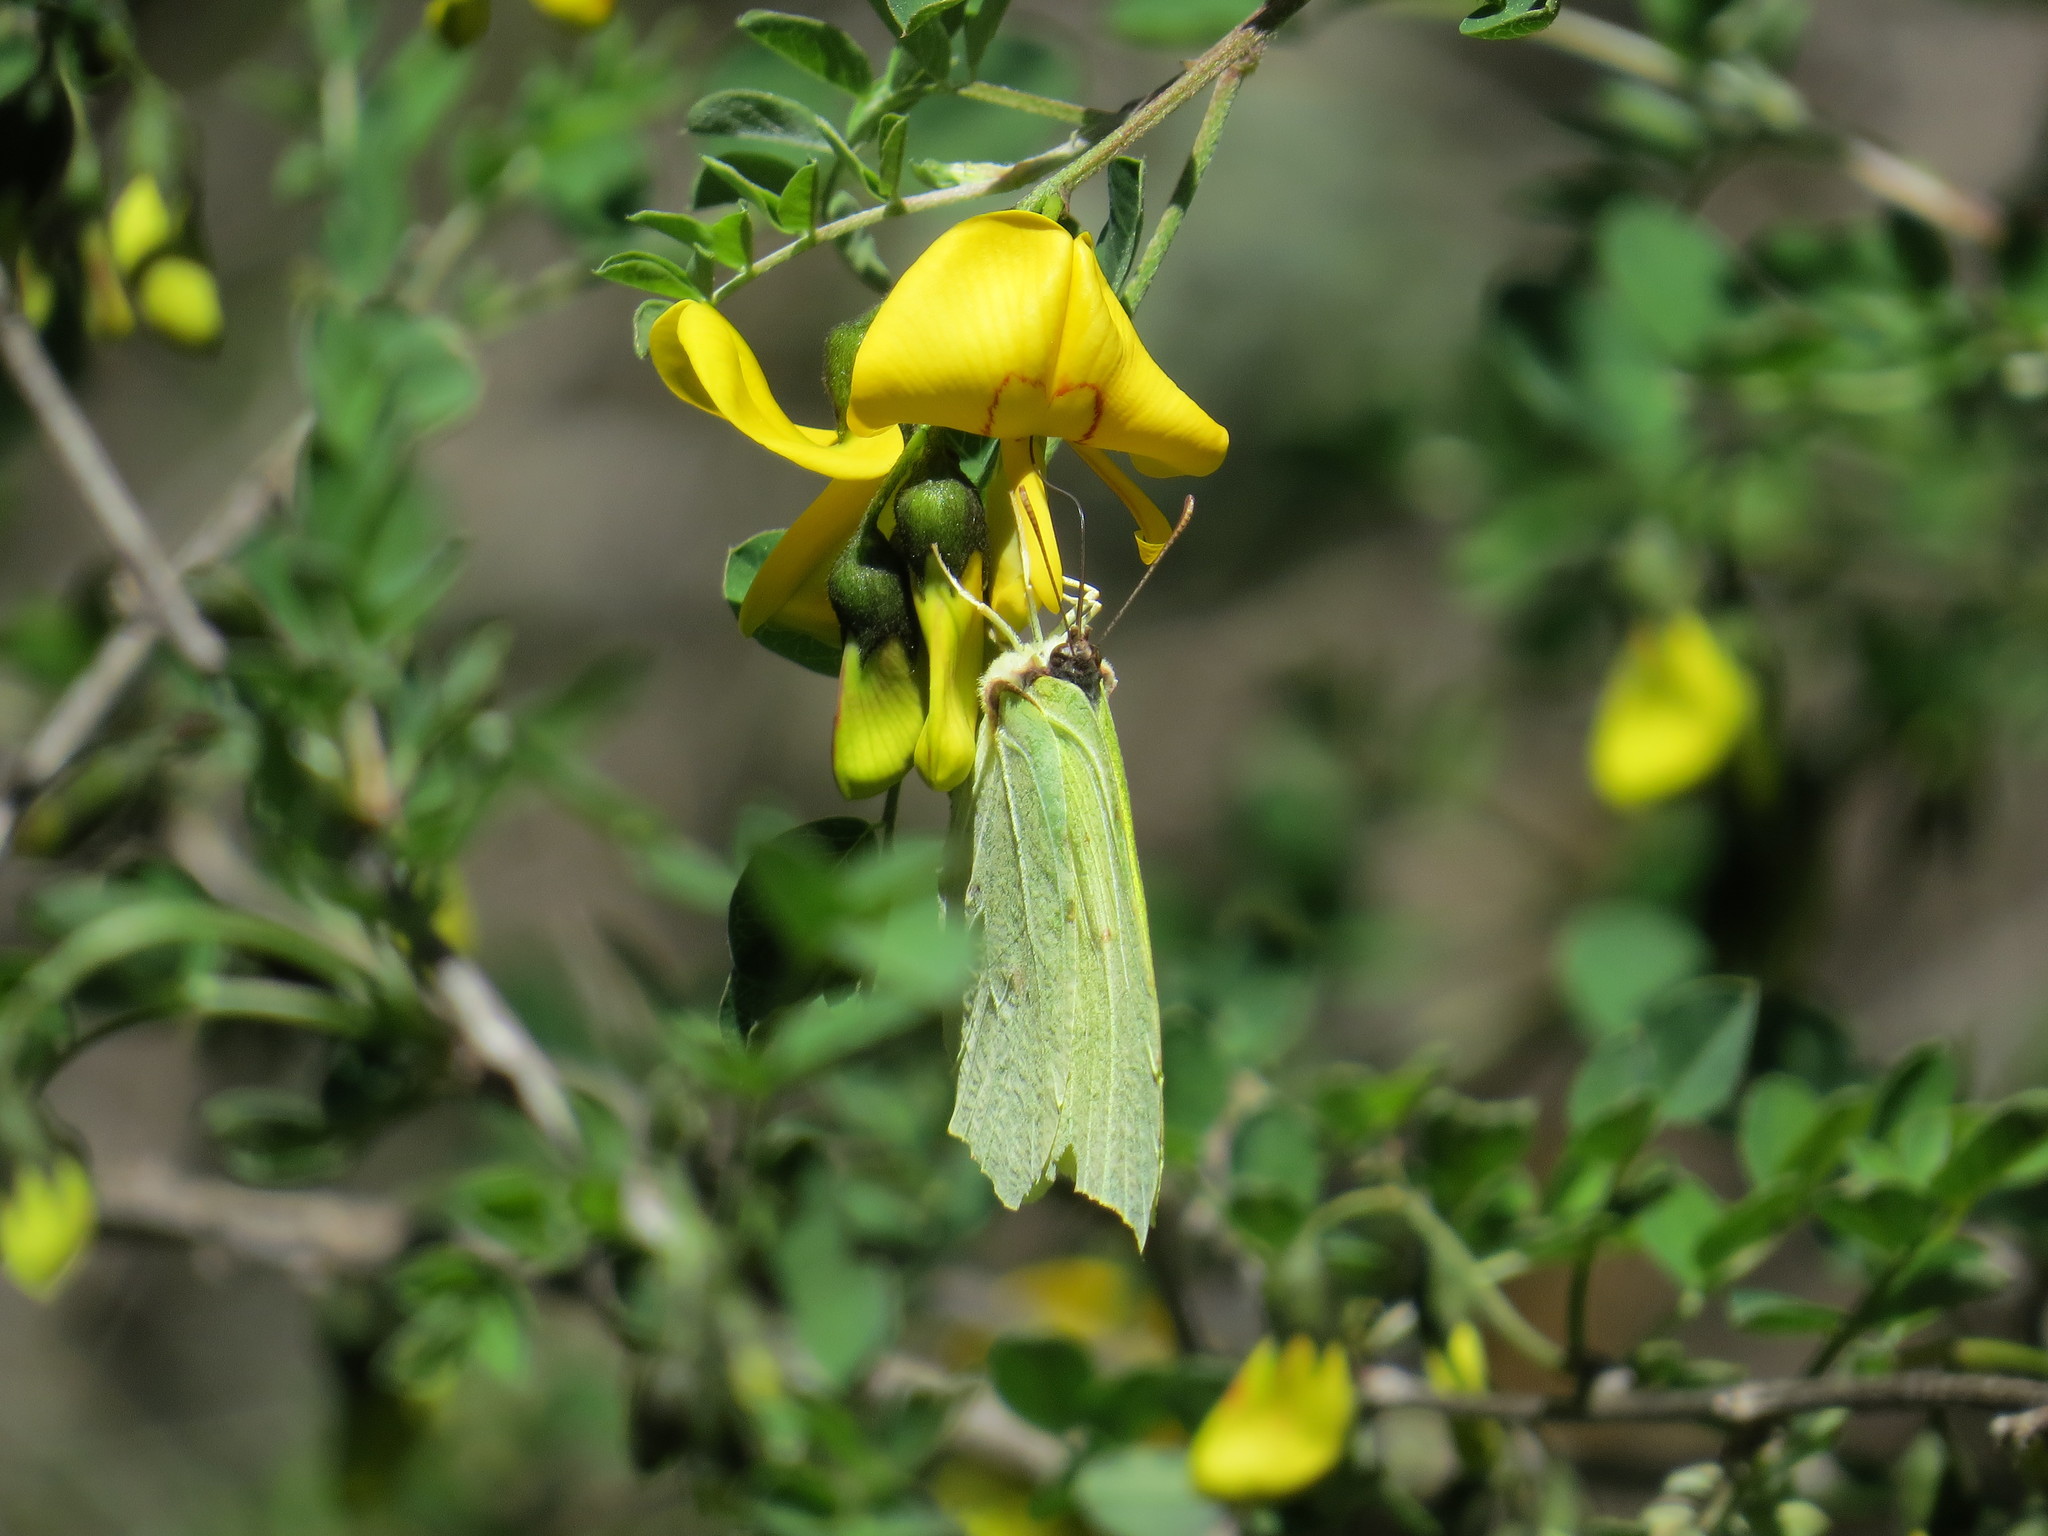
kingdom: Animalia
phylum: Arthropoda
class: Insecta
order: Lepidoptera
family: Pieridae
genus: Gonepteryx
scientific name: Gonepteryx rhamni
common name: Brimstone
